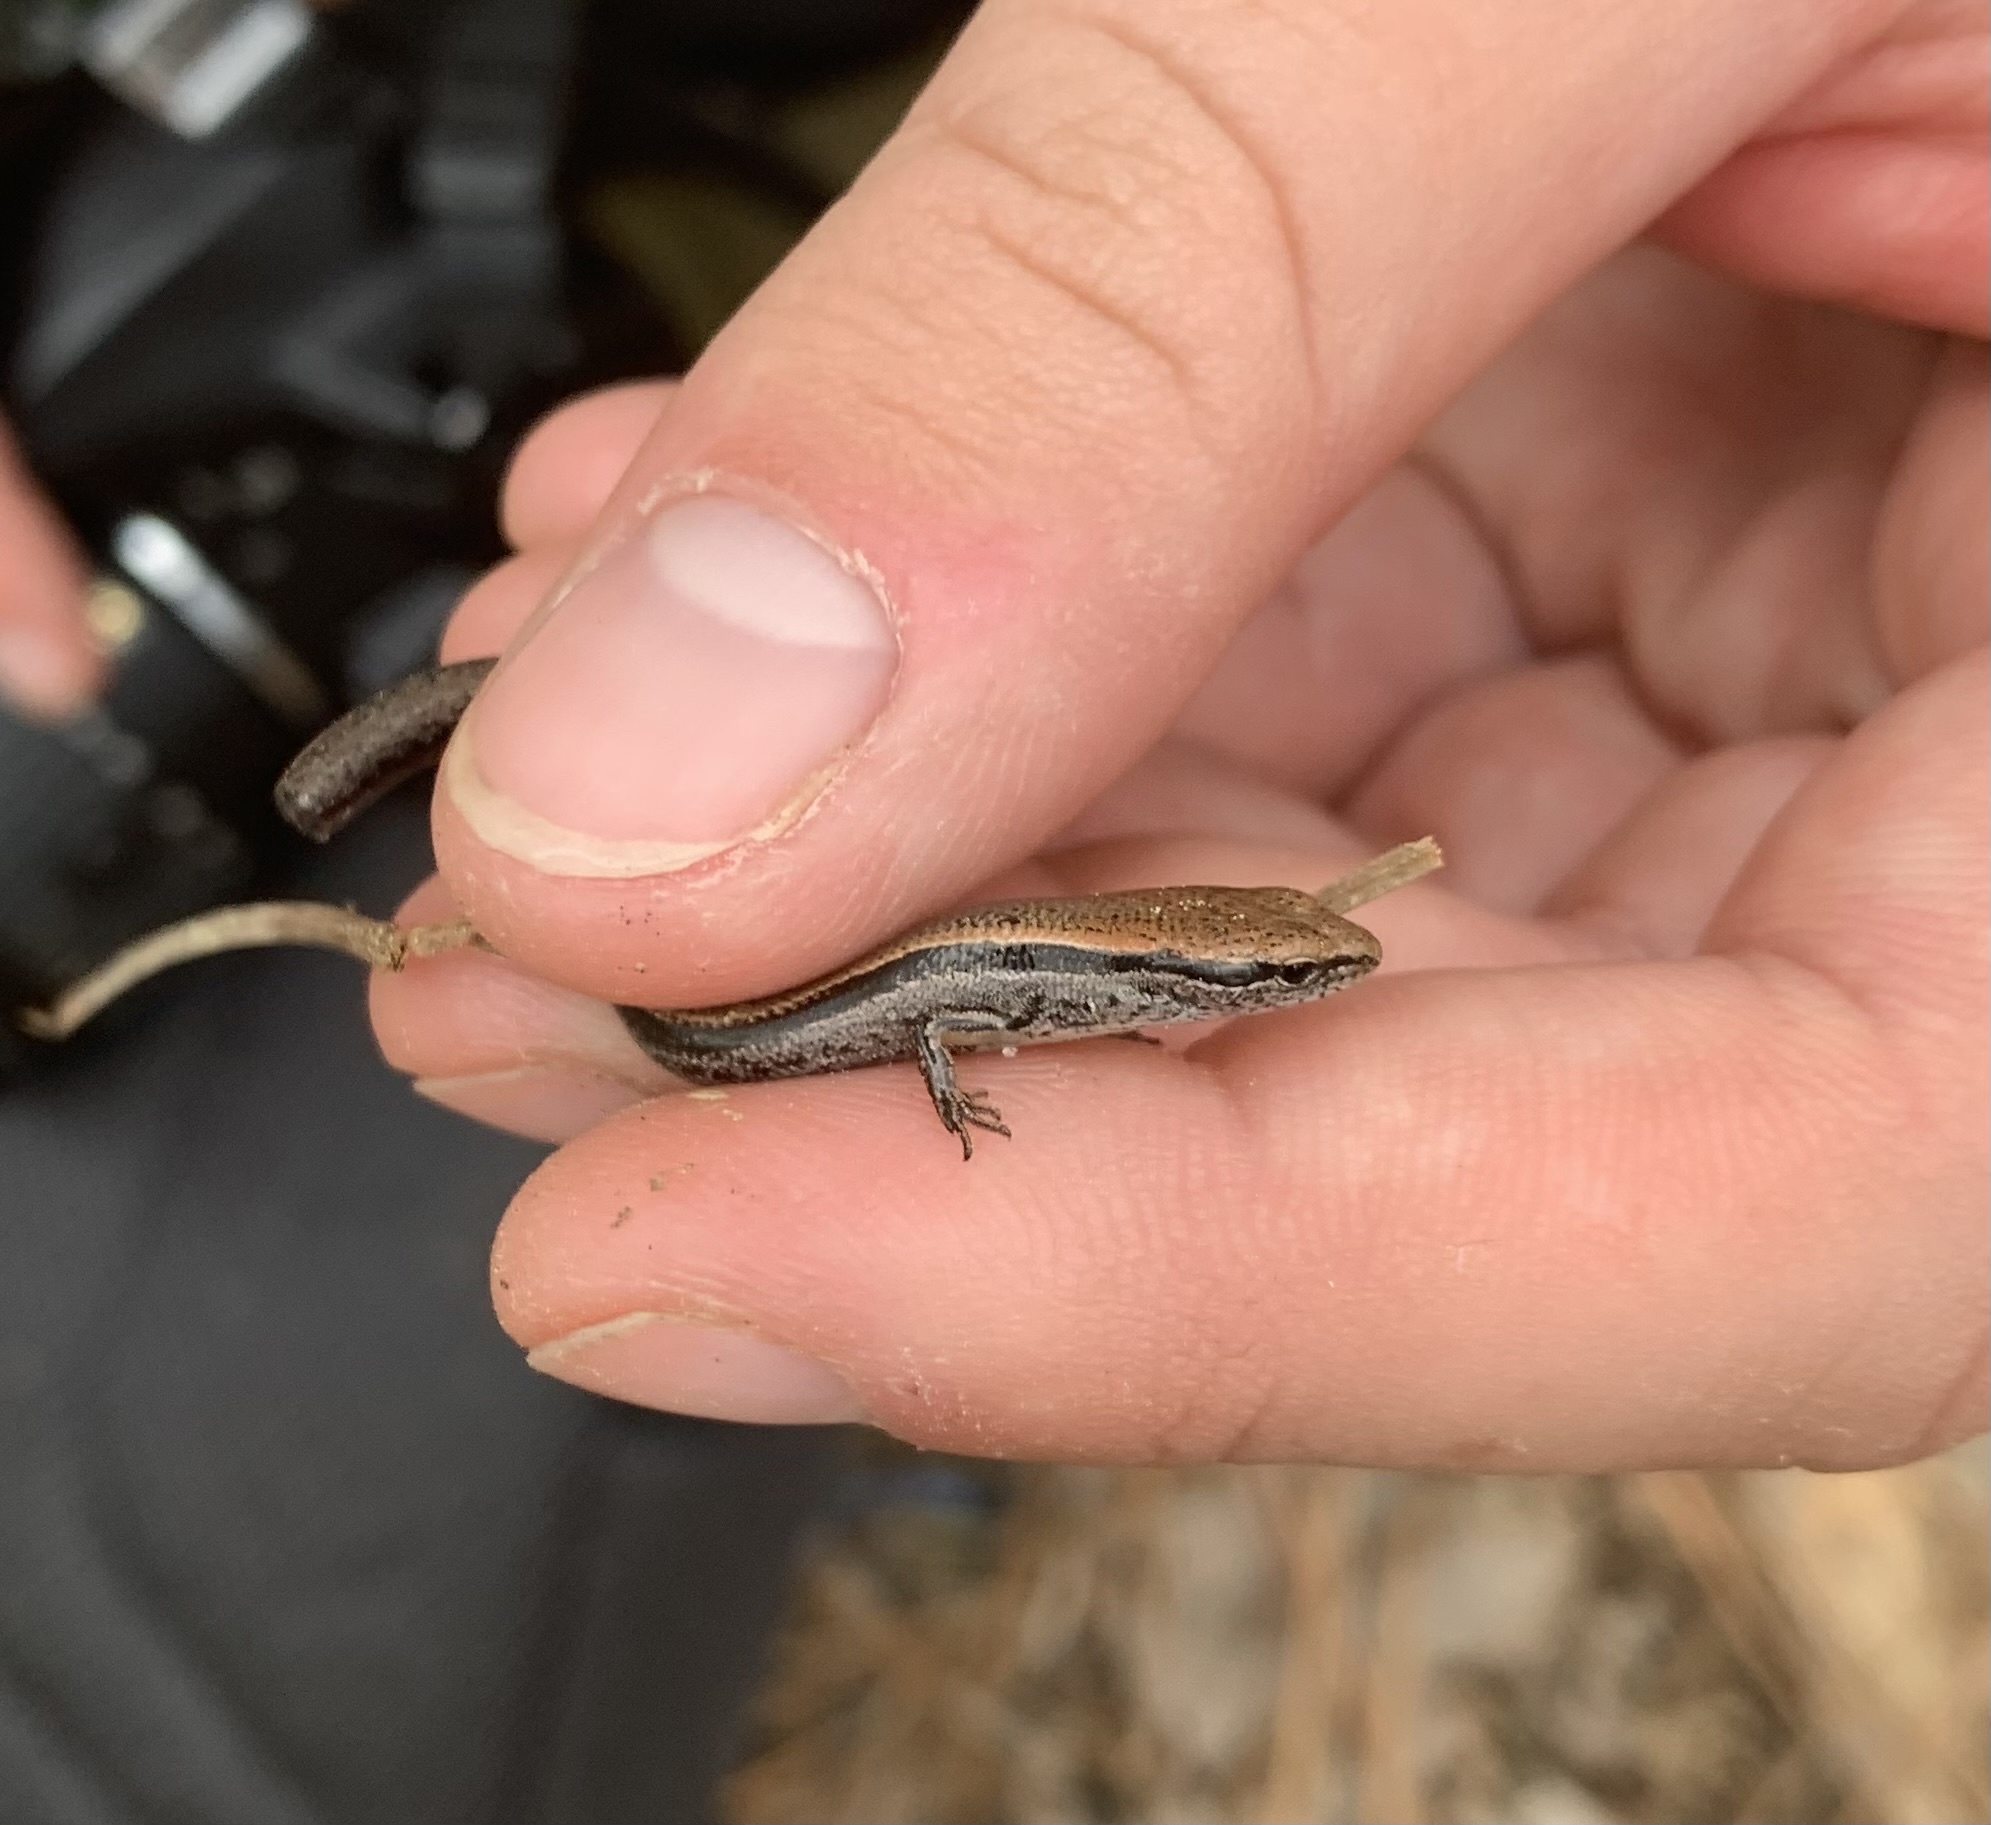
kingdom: Animalia
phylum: Chordata
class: Squamata
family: Scincidae
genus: Scincella
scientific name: Scincella lateralis
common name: Ground skink
